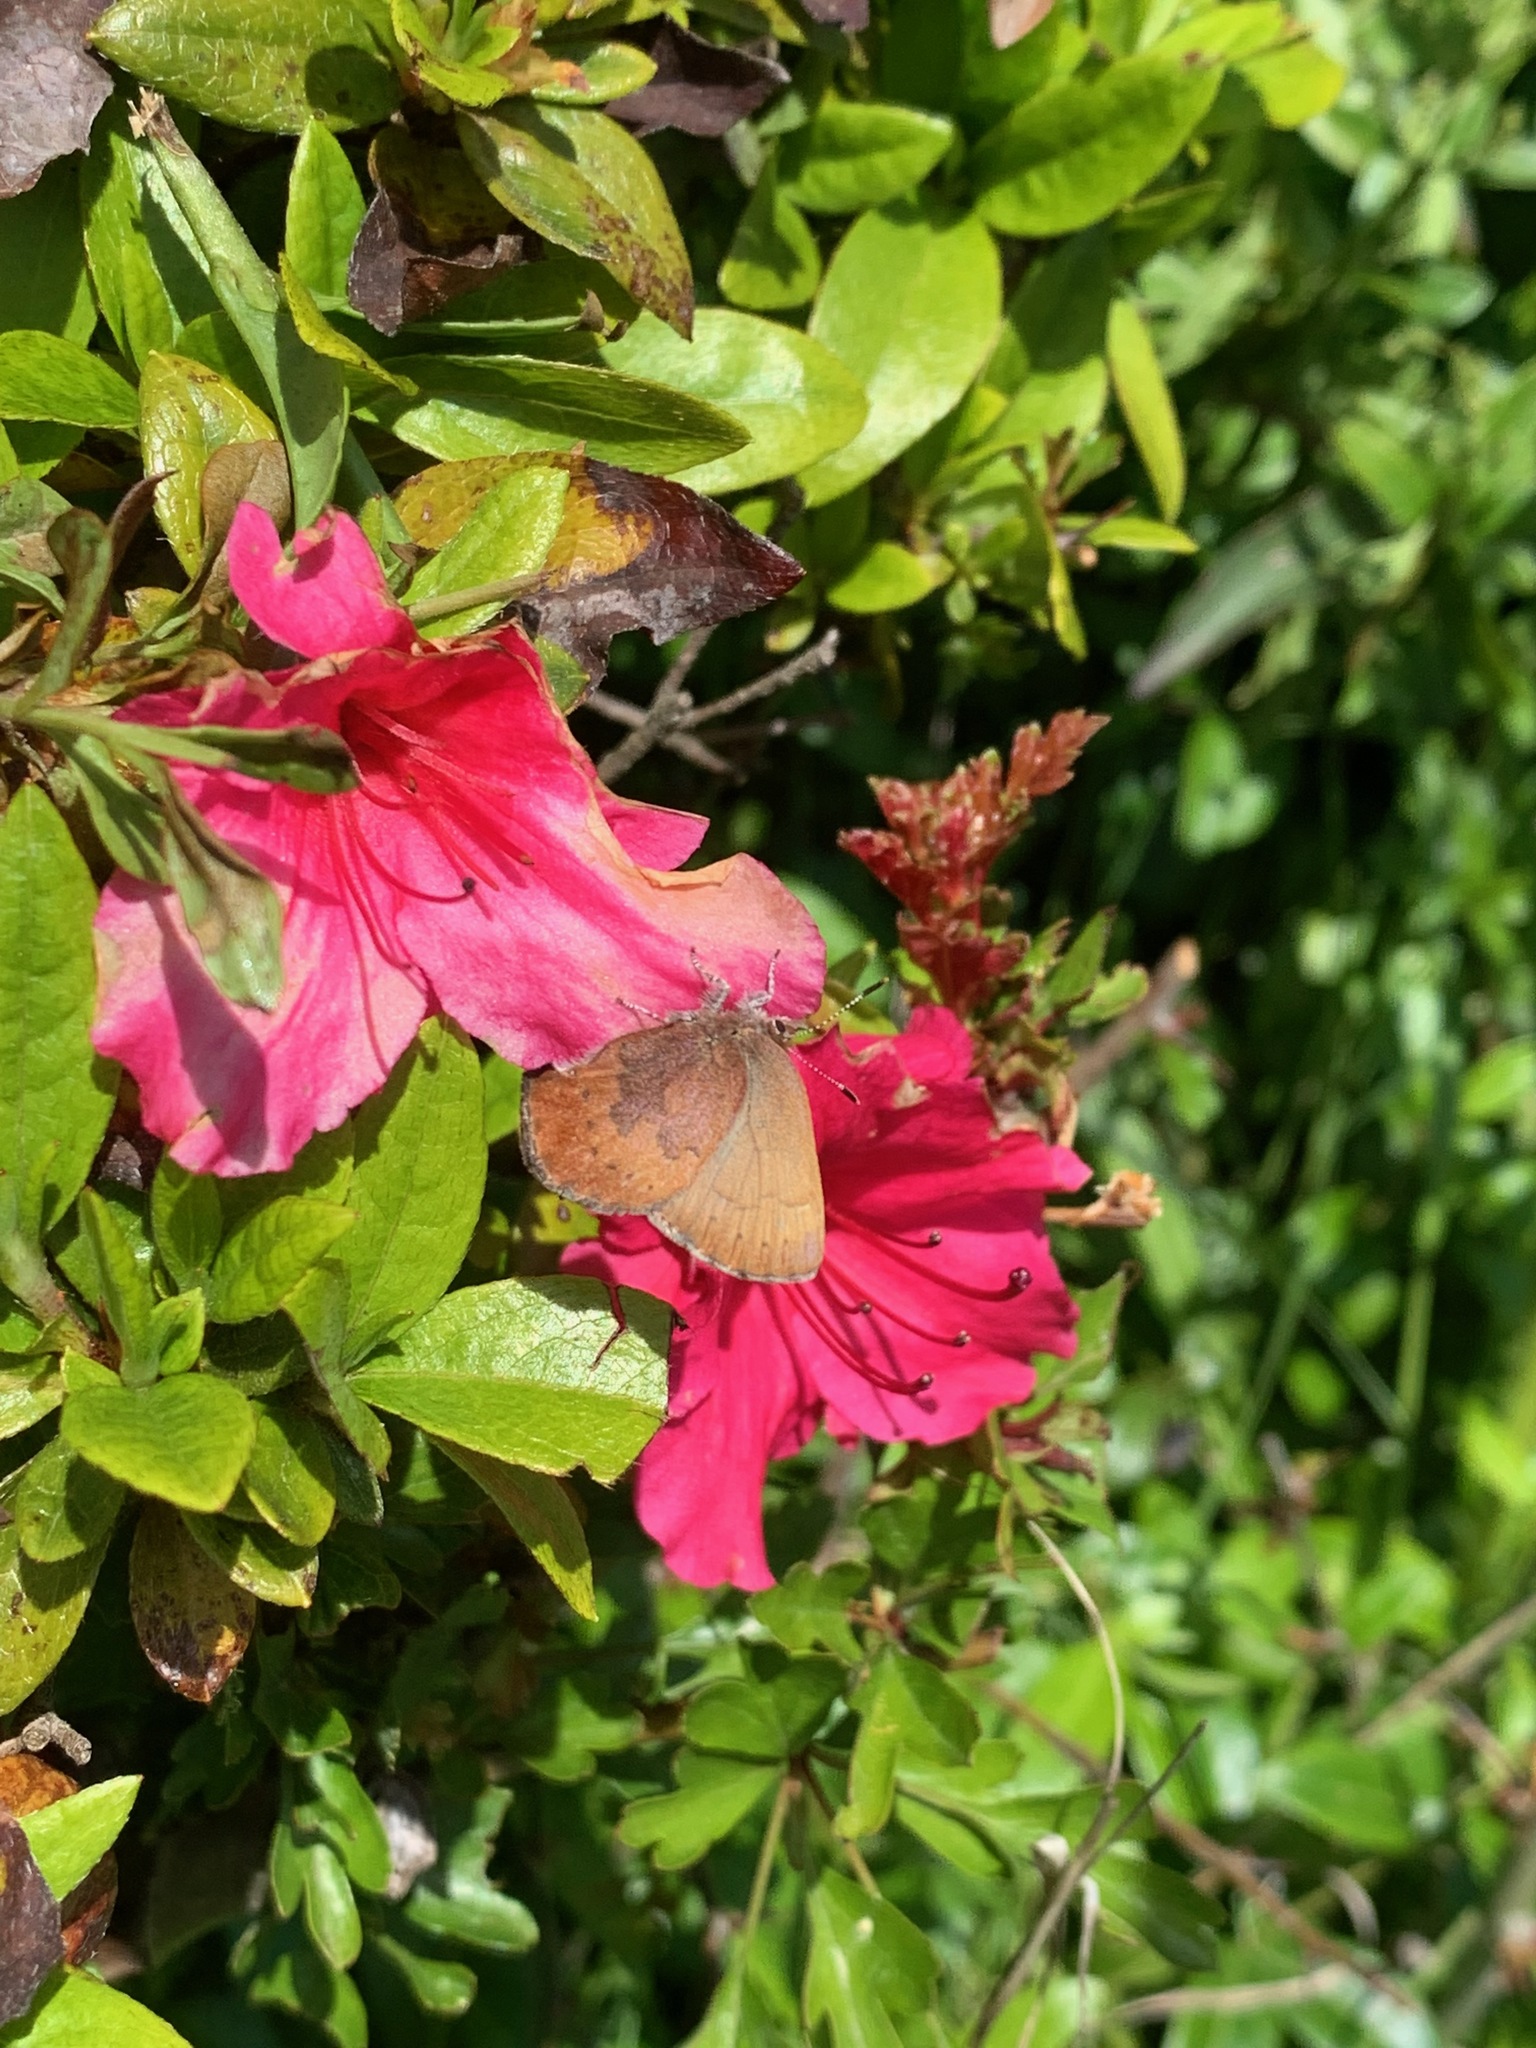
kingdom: Animalia
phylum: Arthropoda
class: Insecta
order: Lepidoptera
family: Lycaenidae
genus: Incisalia
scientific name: Incisalia irioides
